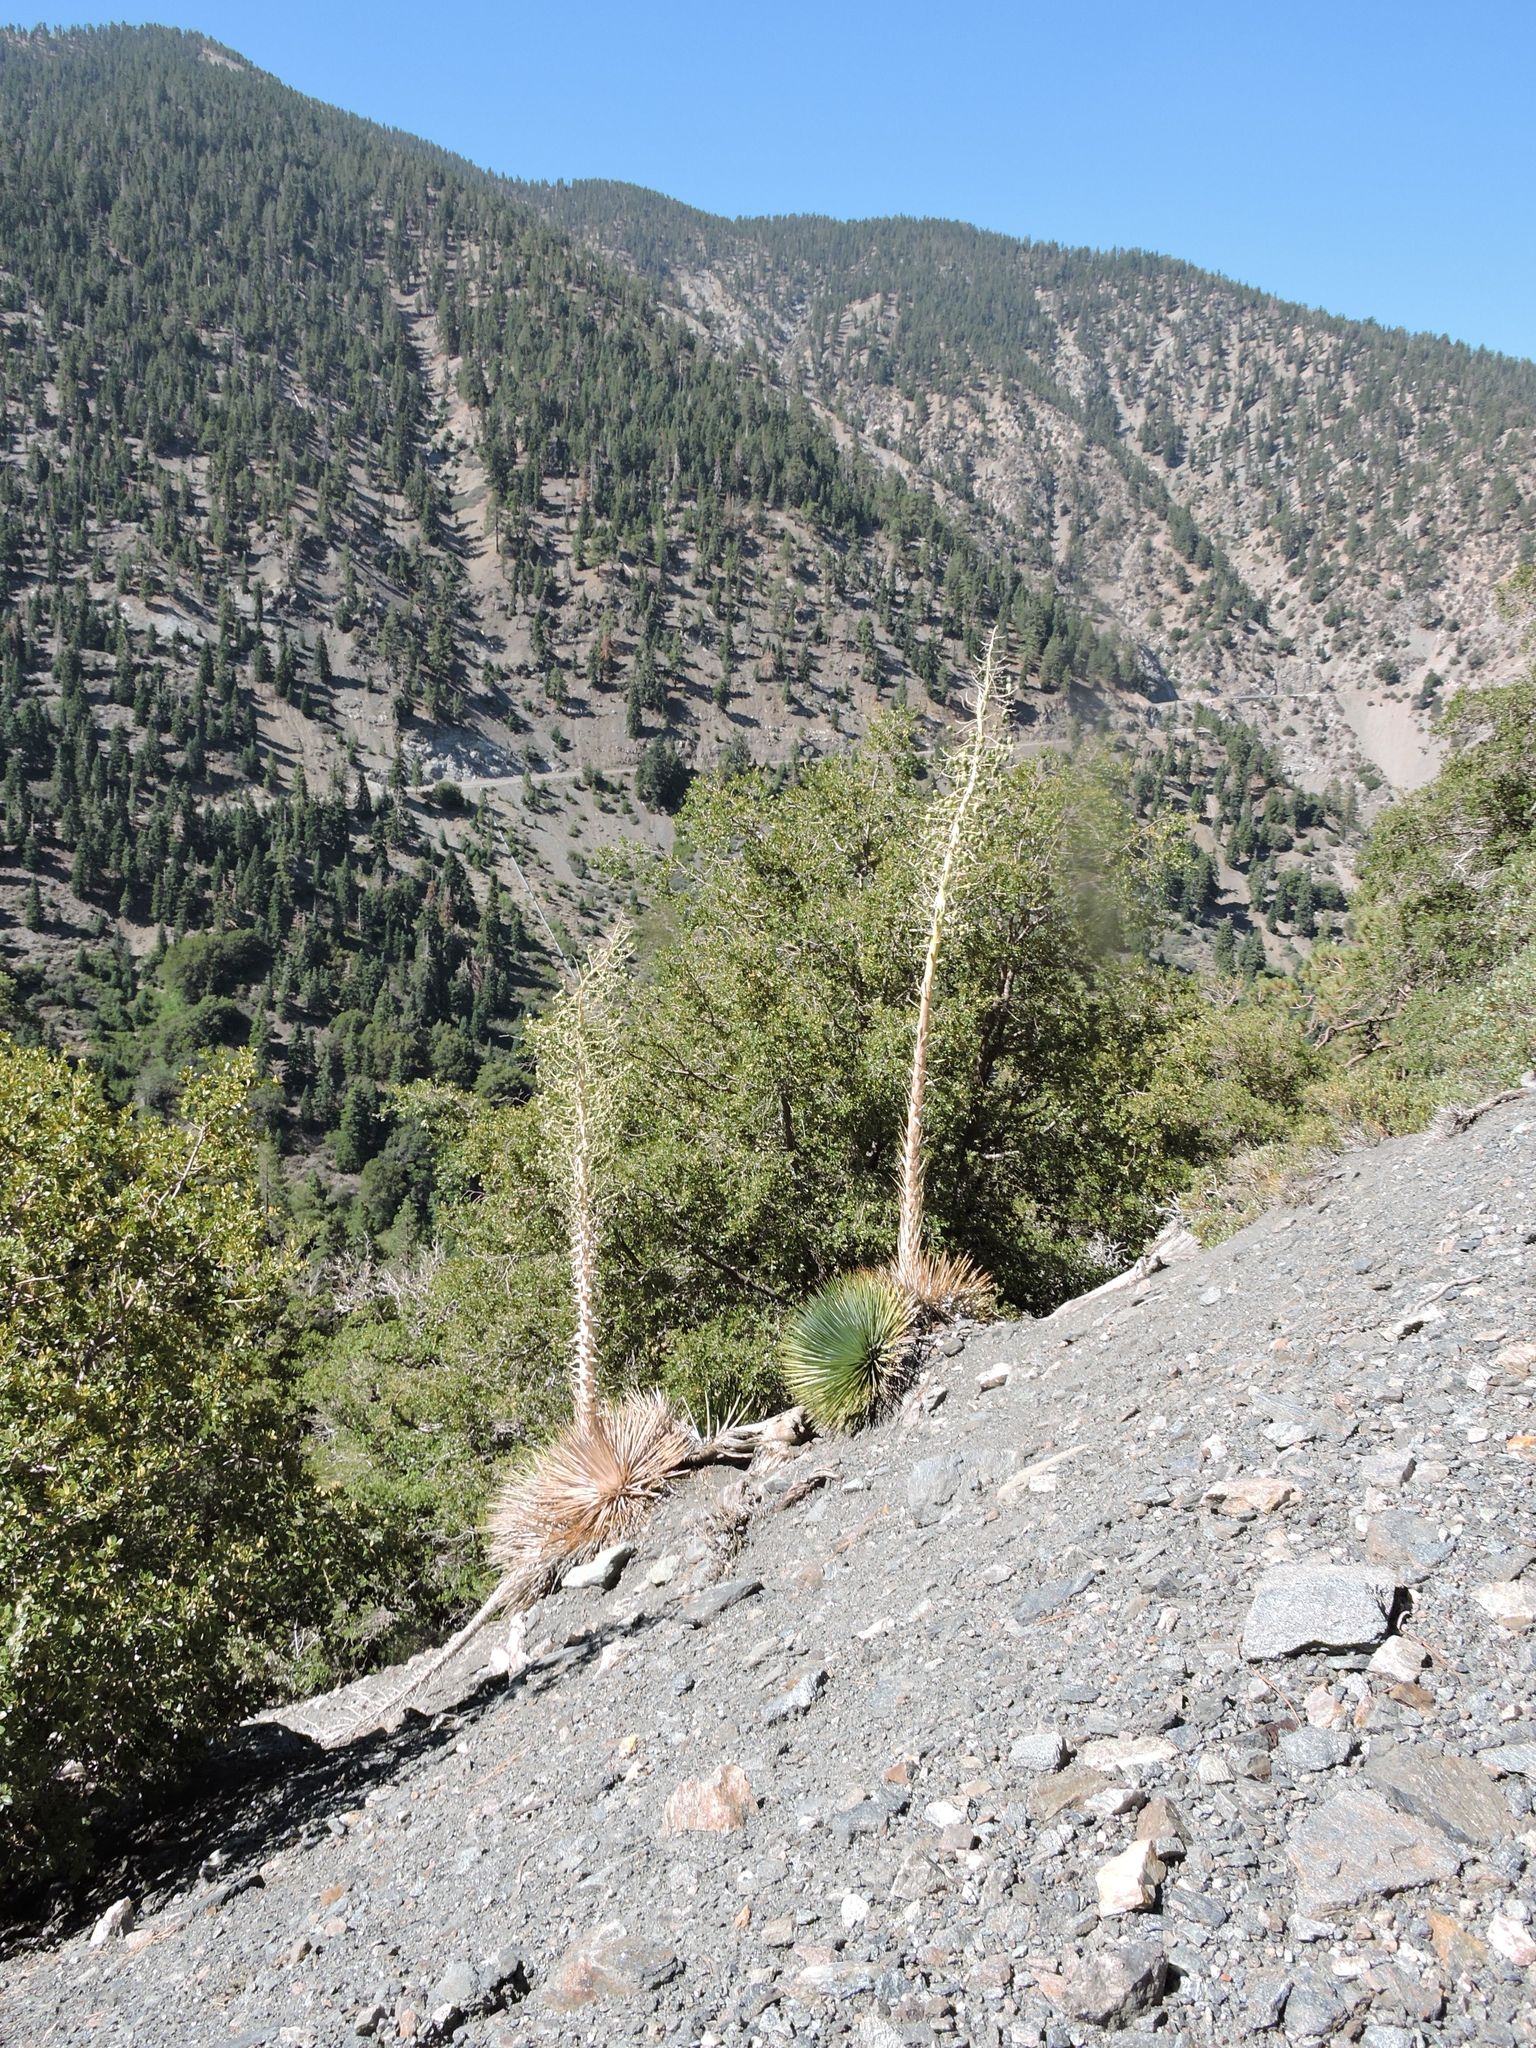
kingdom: Plantae
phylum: Tracheophyta
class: Liliopsida
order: Asparagales
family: Asparagaceae
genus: Hesperoyucca
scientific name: Hesperoyucca whipplei
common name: Our lord's-candle
